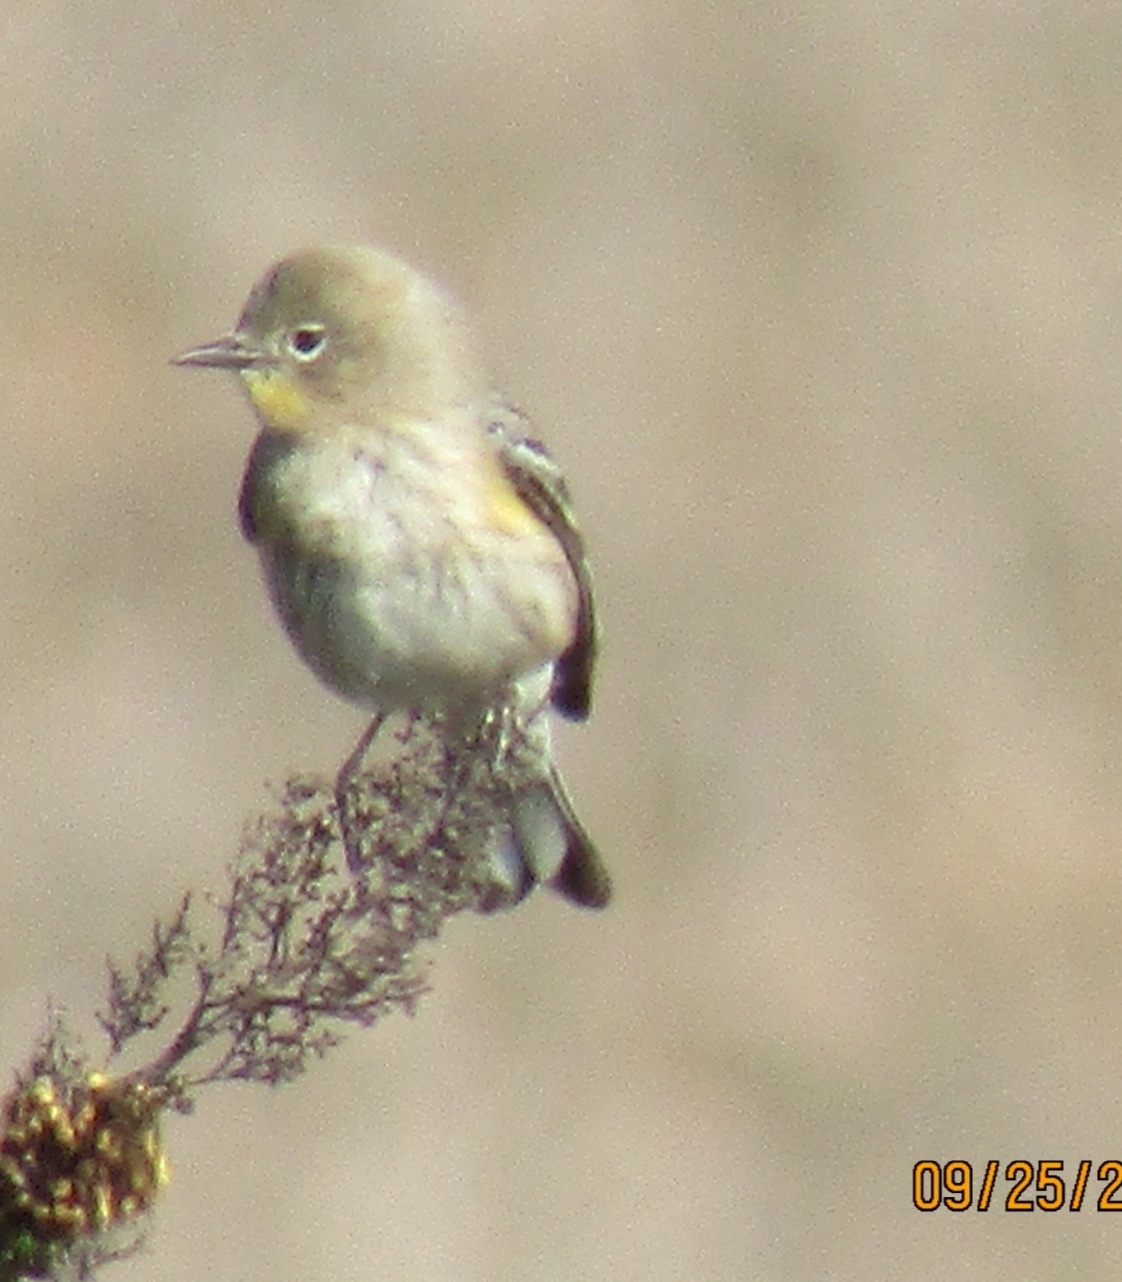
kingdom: Animalia
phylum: Chordata
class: Aves
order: Passeriformes
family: Parulidae
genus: Setophaga
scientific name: Setophaga coronata
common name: Myrtle warbler
